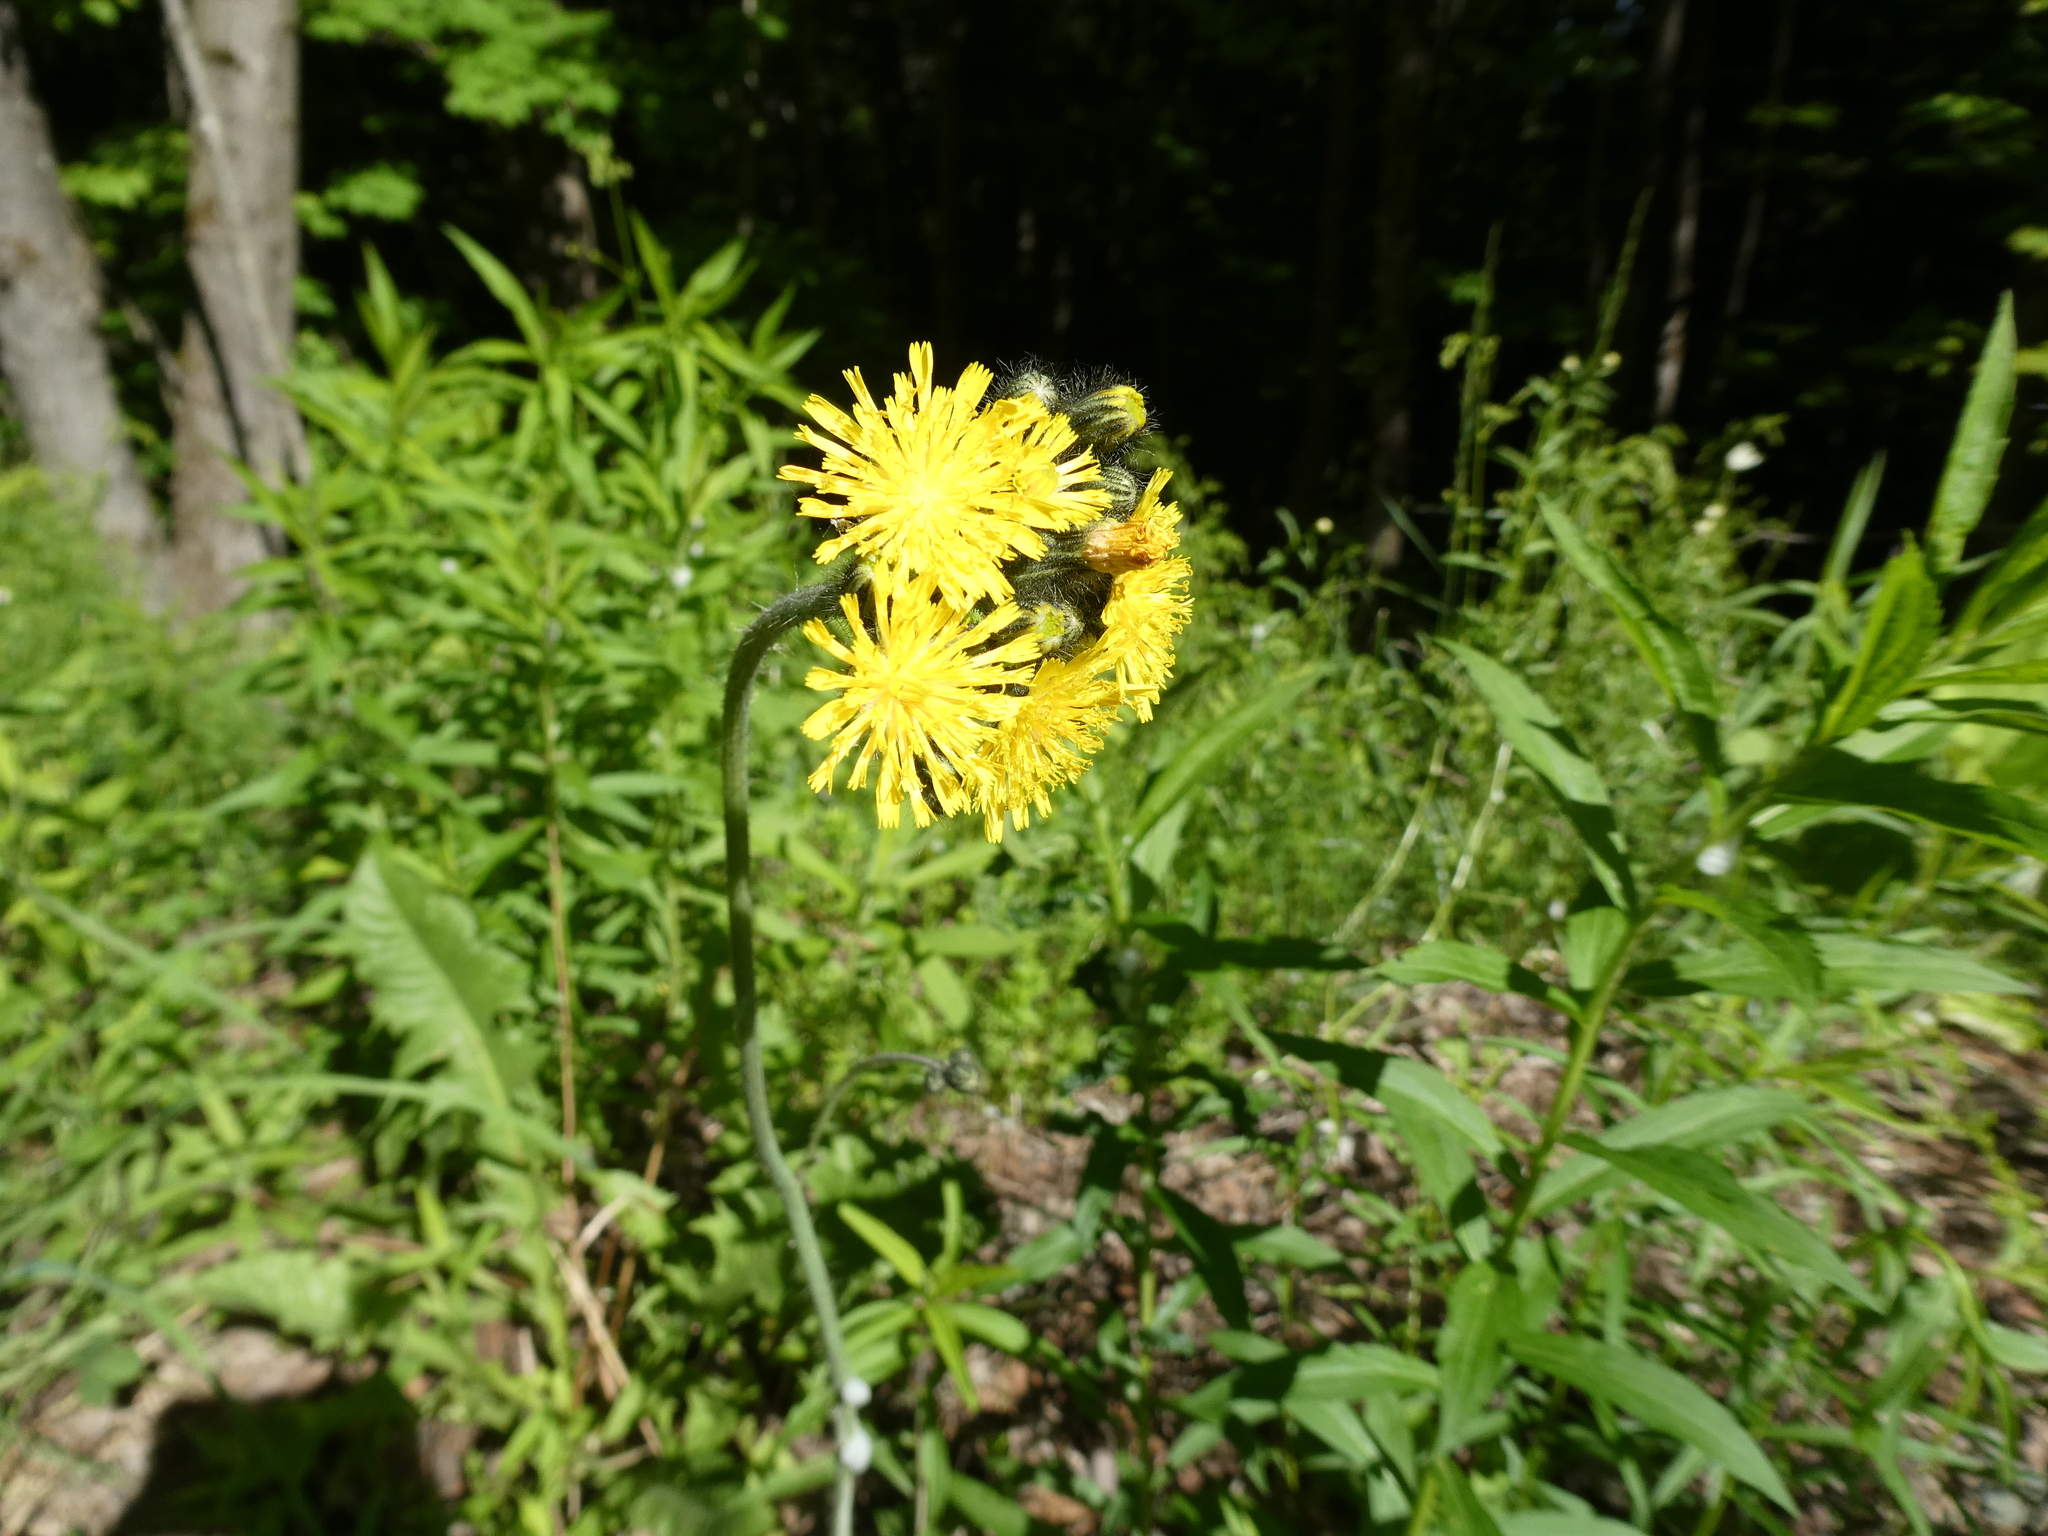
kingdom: Plantae
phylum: Tracheophyta
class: Magnoliopsida
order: Asterales
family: Asteraceae
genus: Pilosella
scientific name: Pilosella caespitosa
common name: Yellow fox-and-cubs
